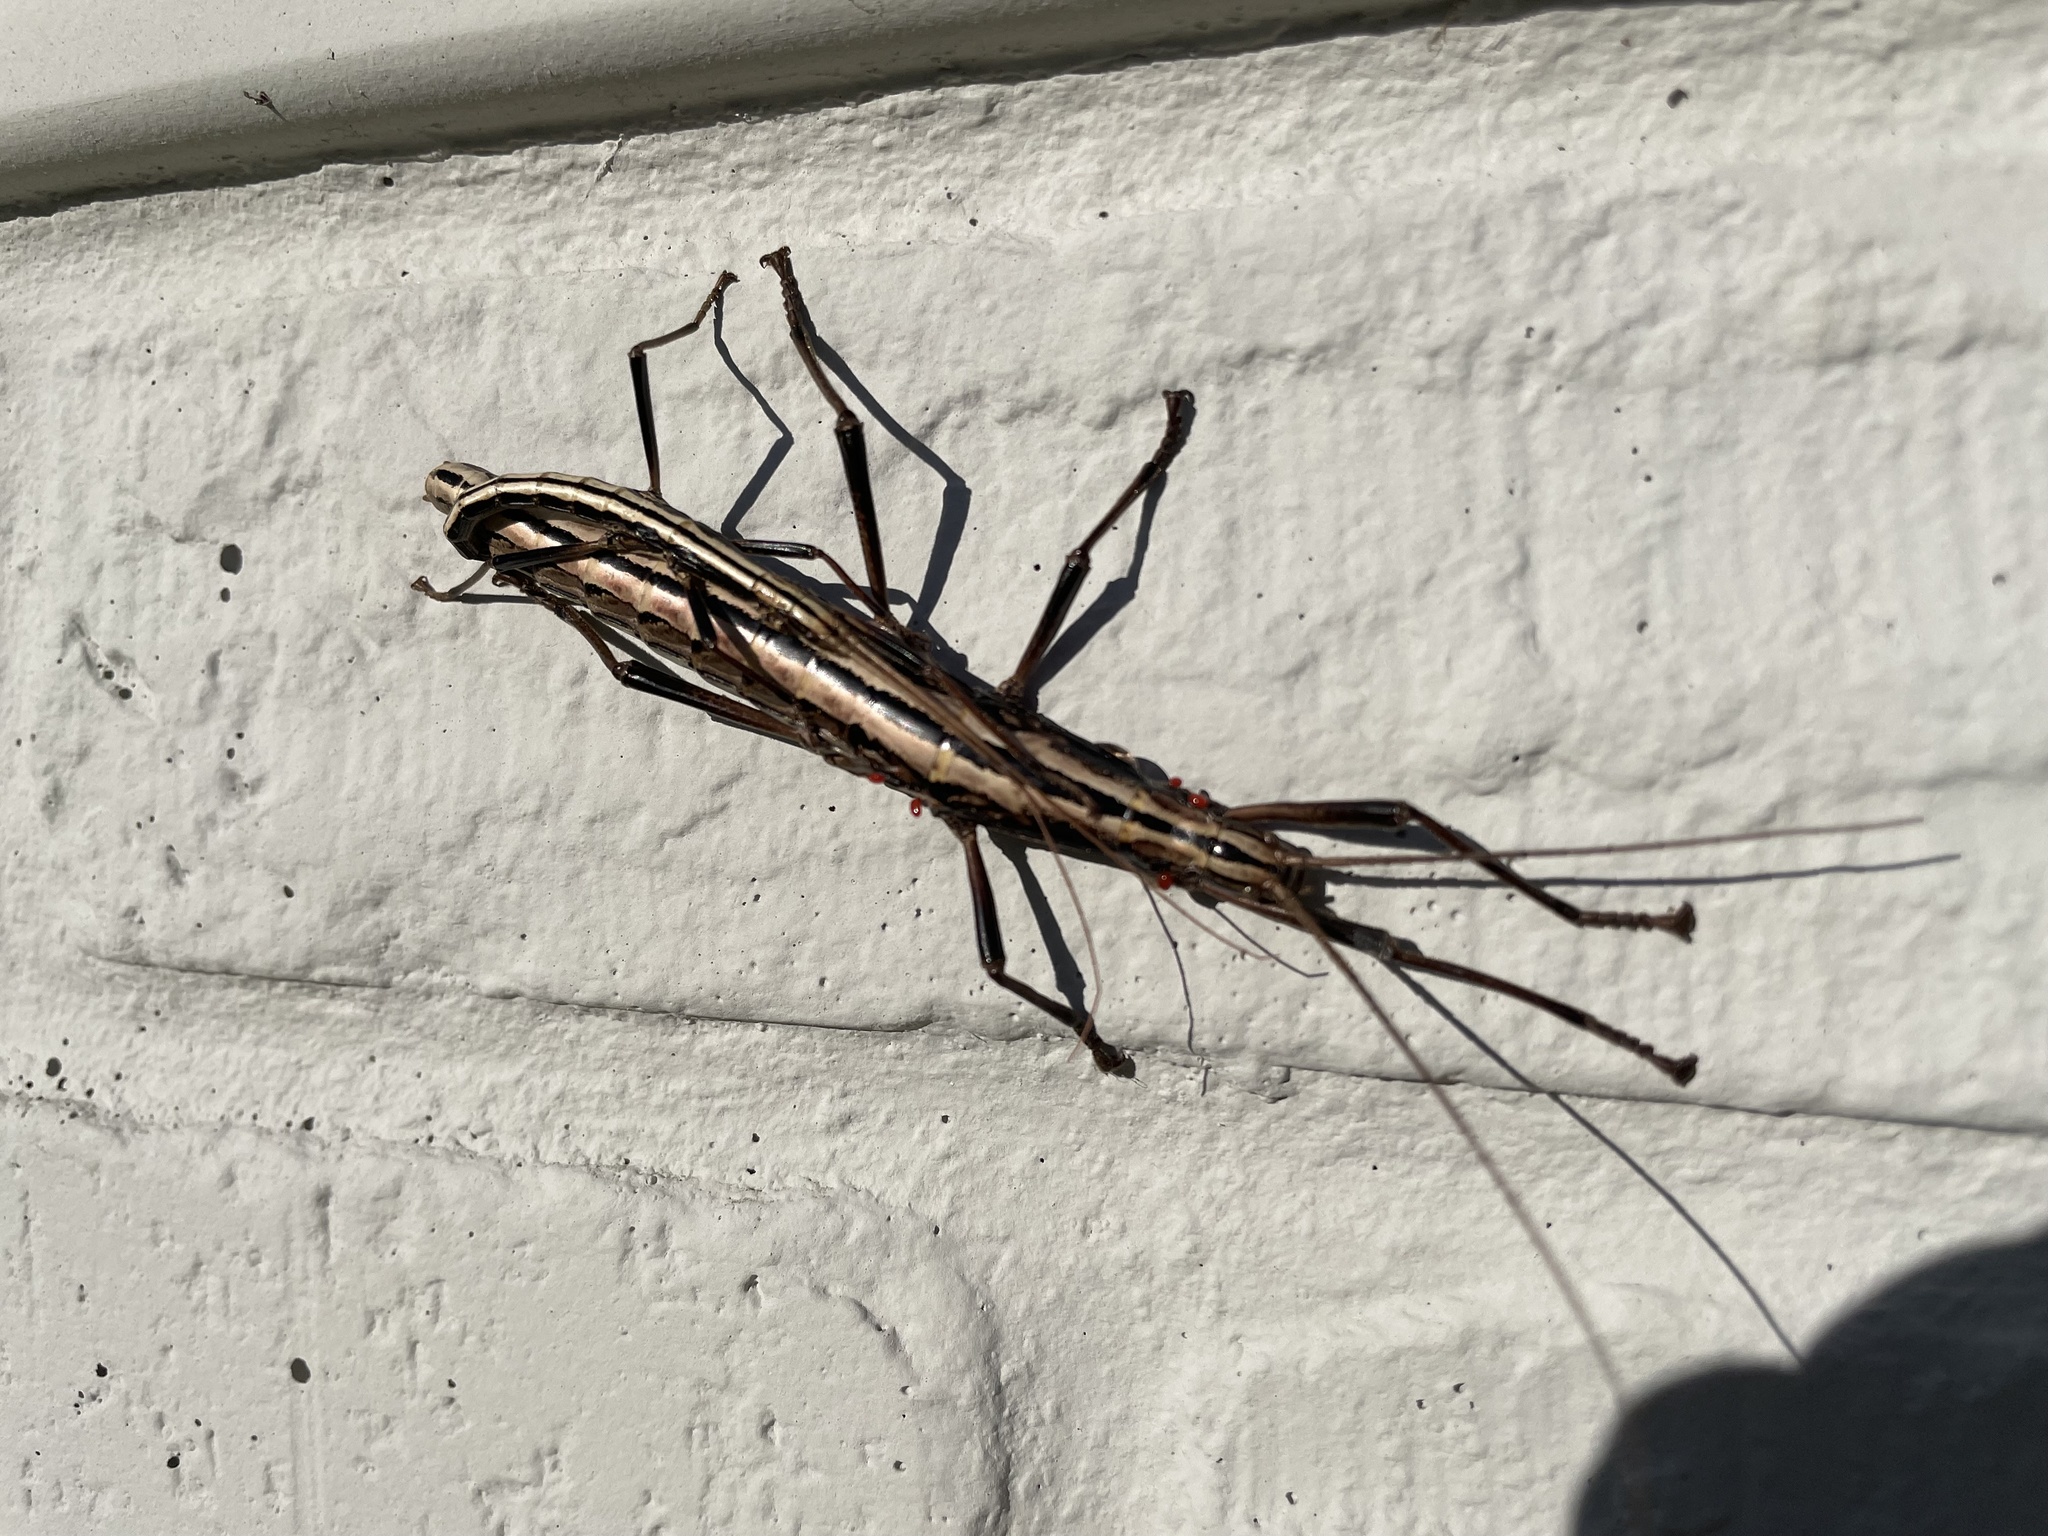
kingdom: Animalia
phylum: Arthropoda
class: Insecta
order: Phasmida
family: Pseudophasmatidae
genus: Anisomorpha
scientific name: Anisomorpha buprestoides
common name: Florida stick insect
